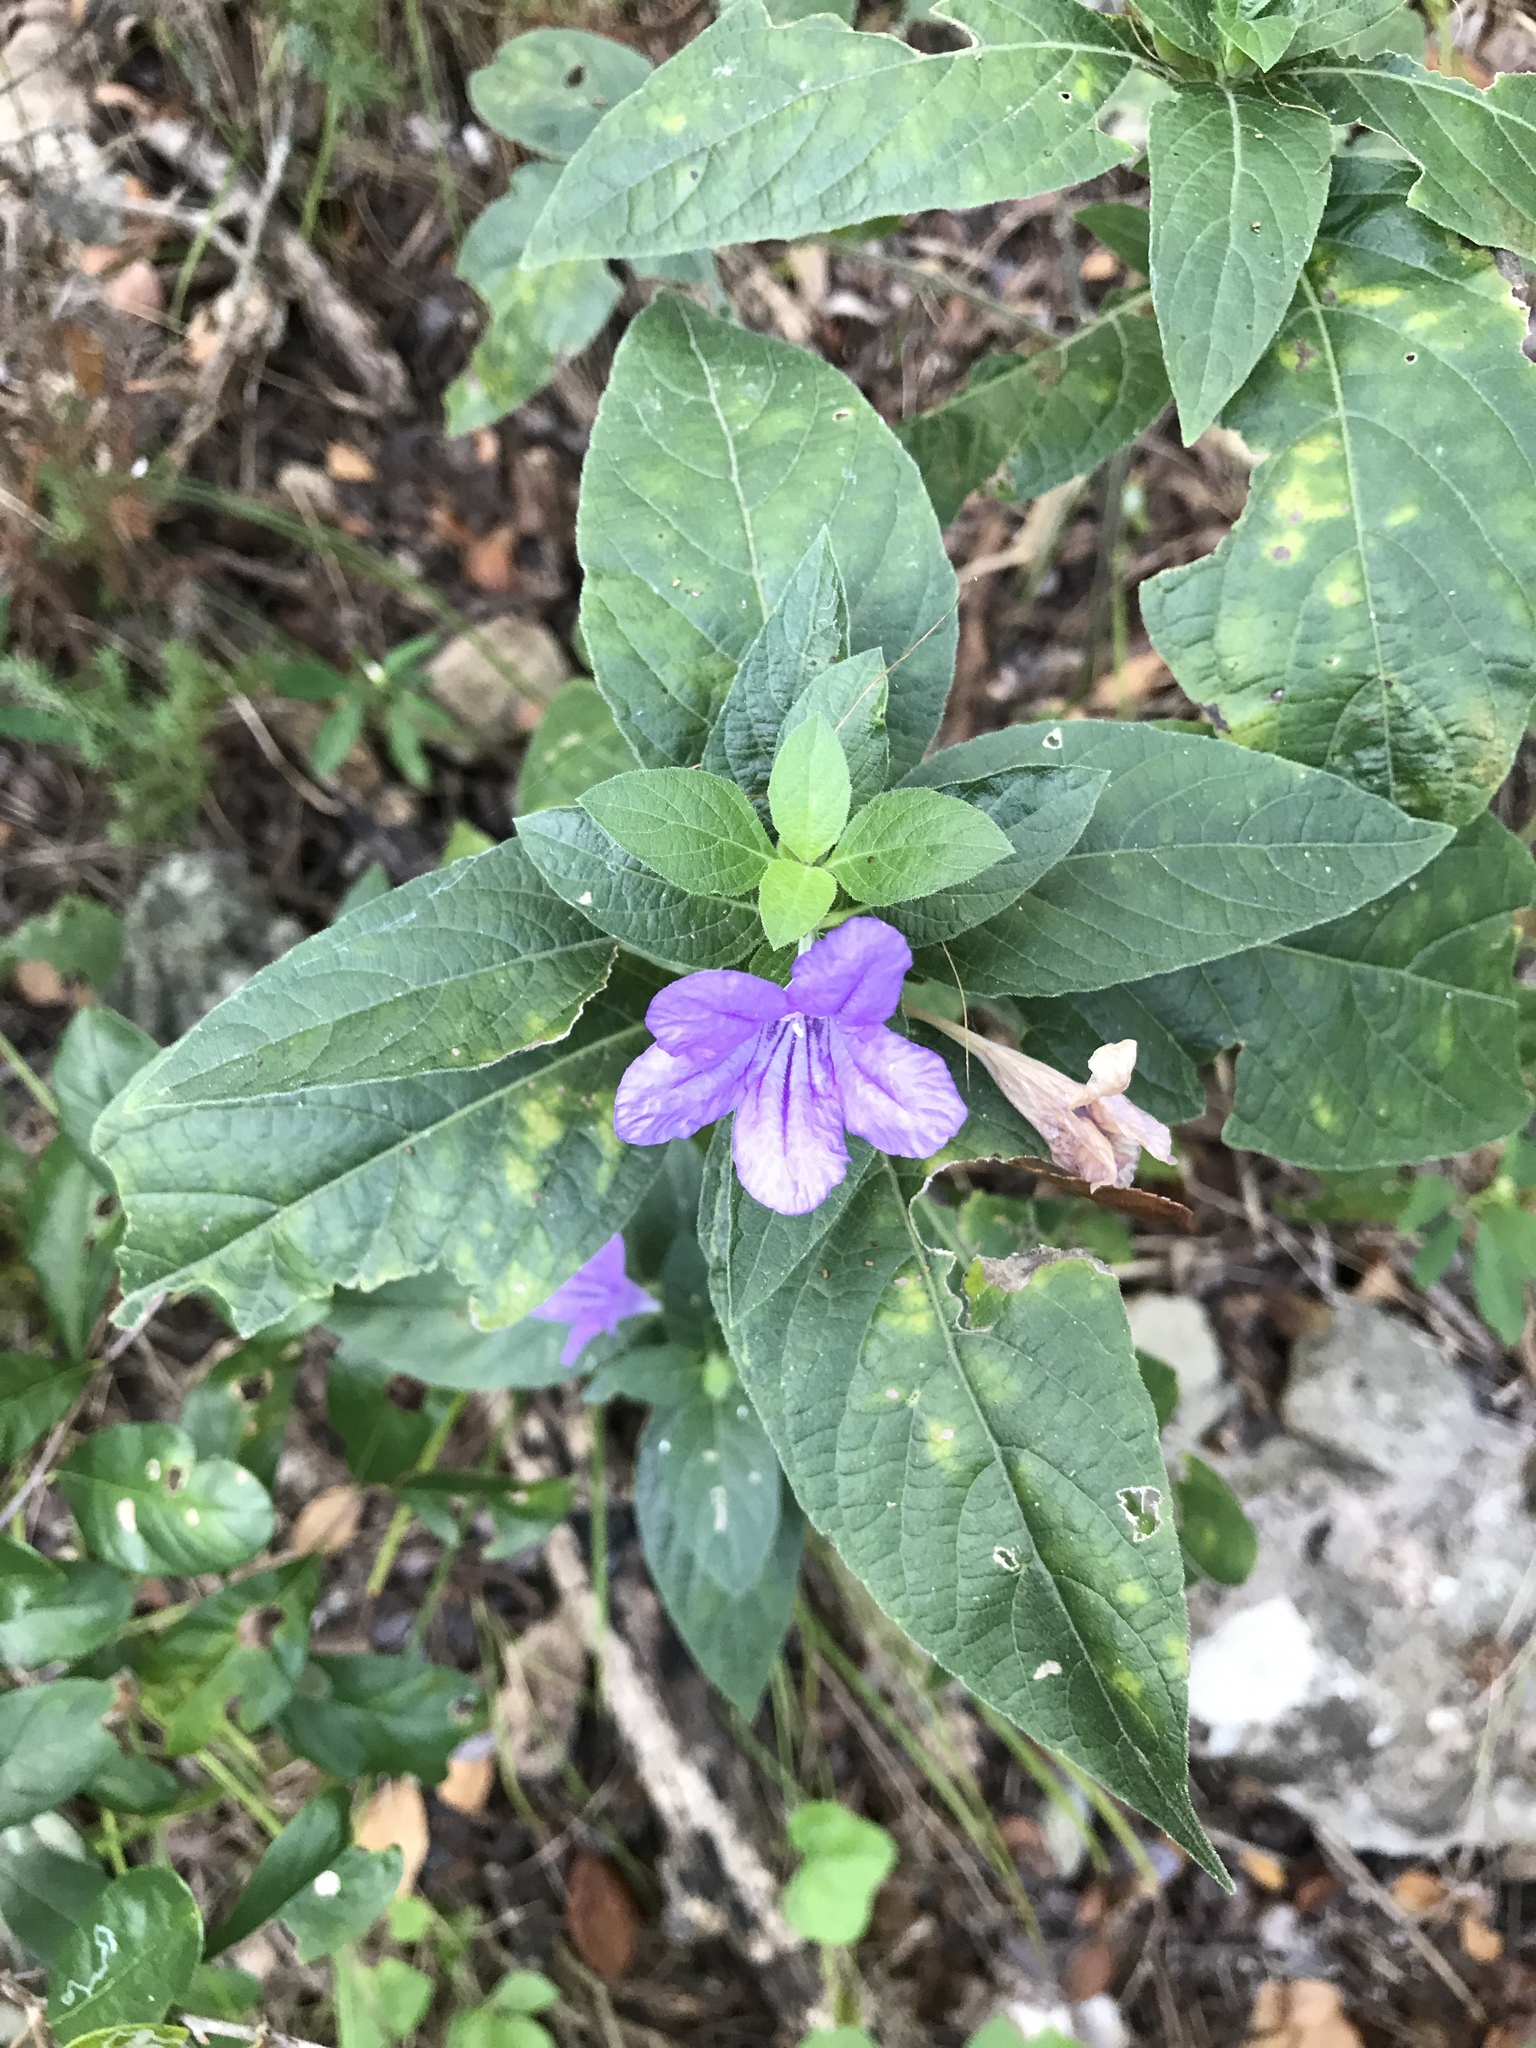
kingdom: Plantae
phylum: Tracheophyta
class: Magnoliopsida
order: Lamiales
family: Acanthaceae
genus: Ruellia
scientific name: Ruellia drummondiana
